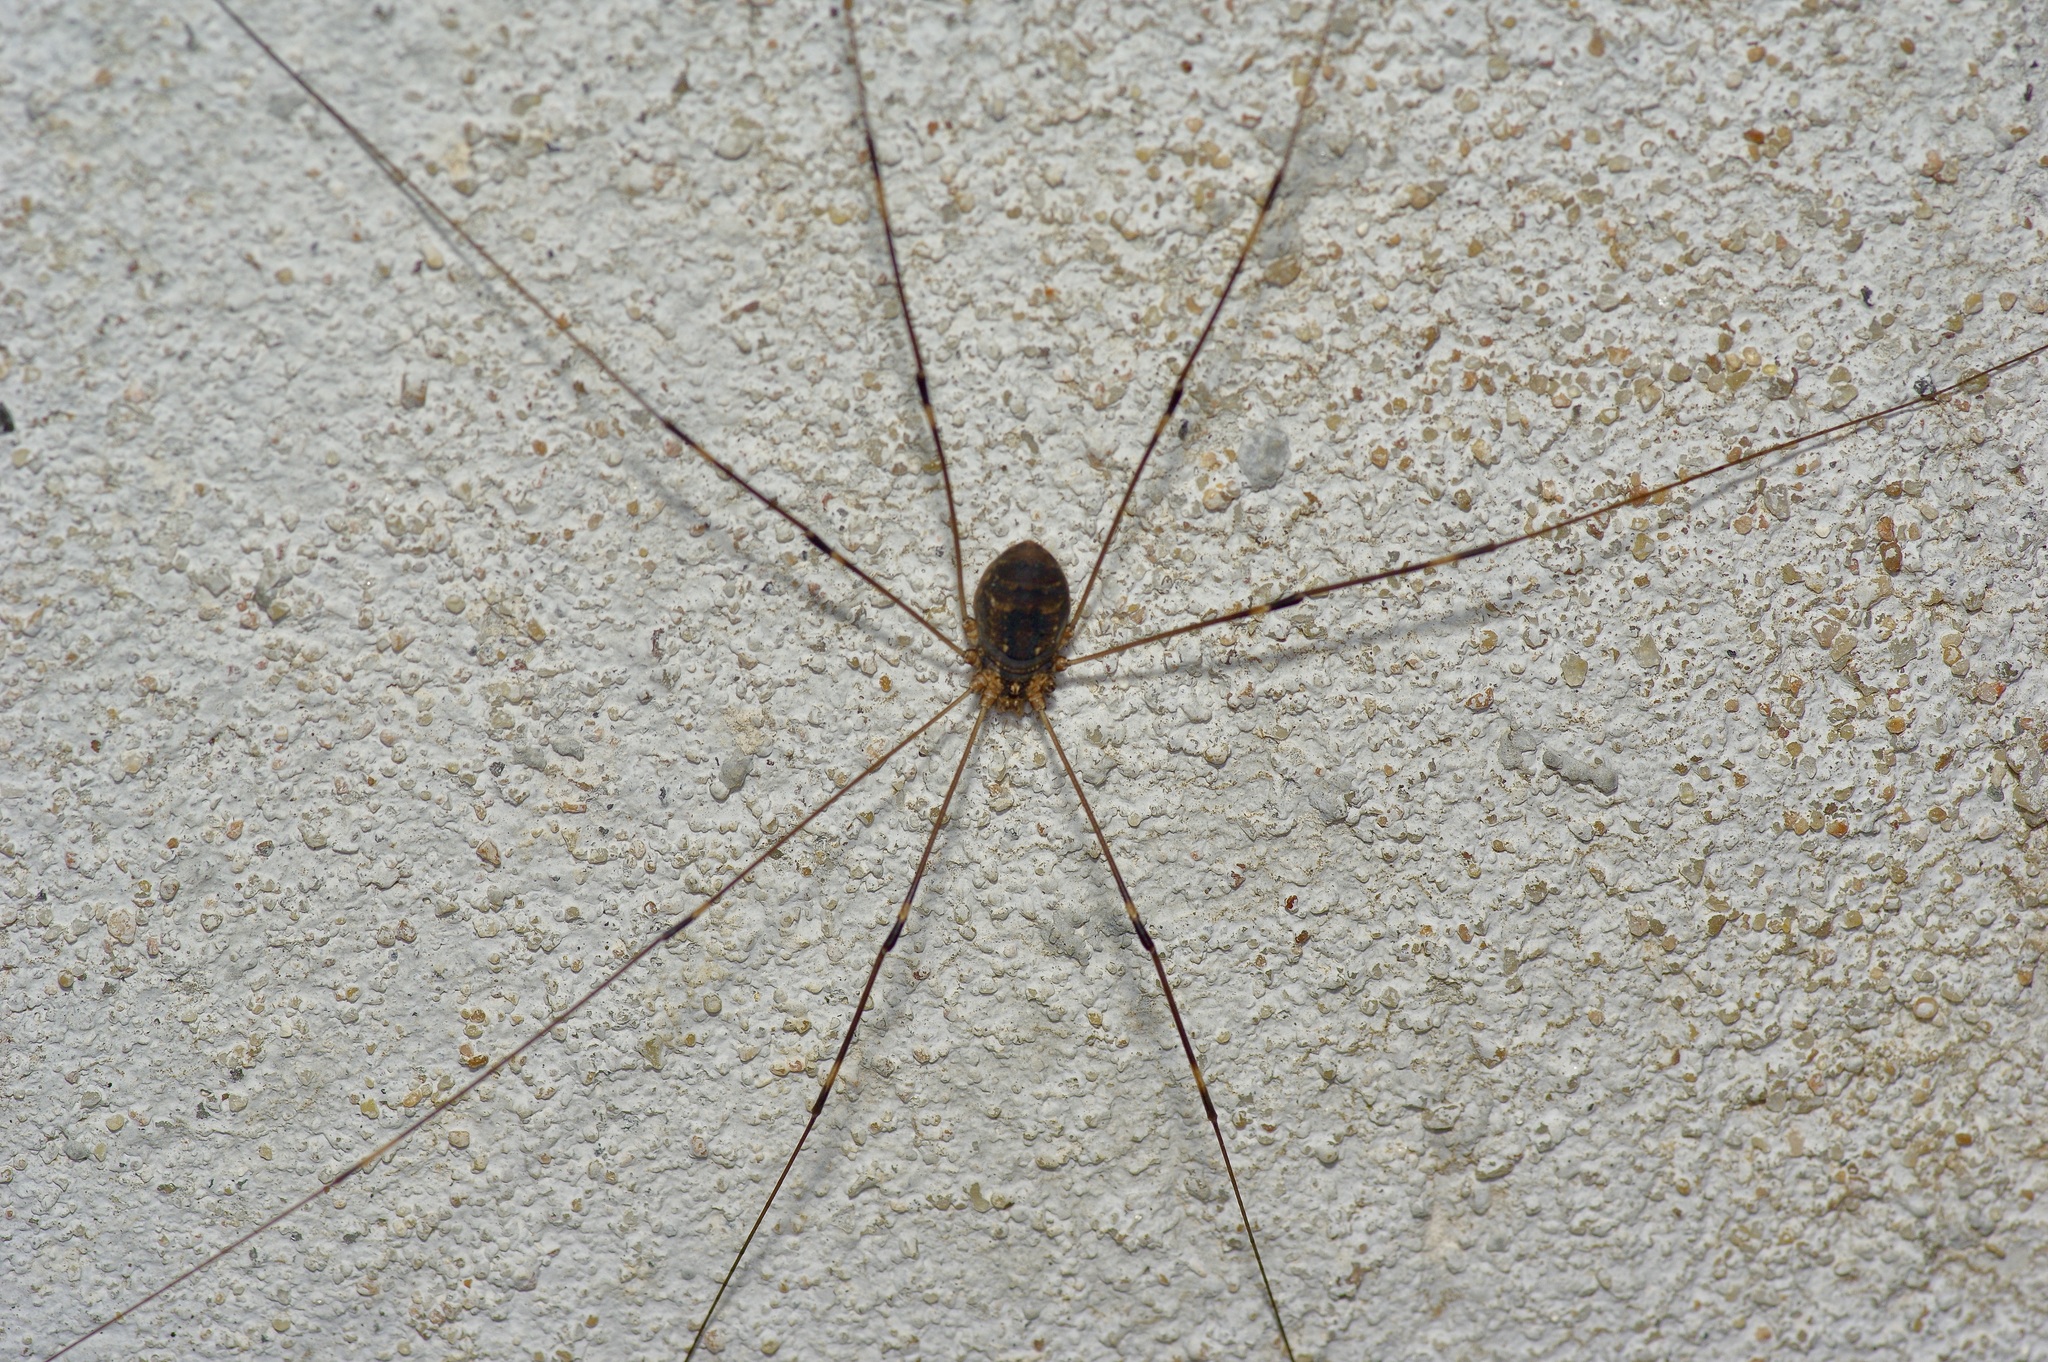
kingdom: Animalia
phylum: Arthropoda
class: Arachnida
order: Opiliones
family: Sclerosomatidae
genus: Leiobunum
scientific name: Leiobunum townsendi
